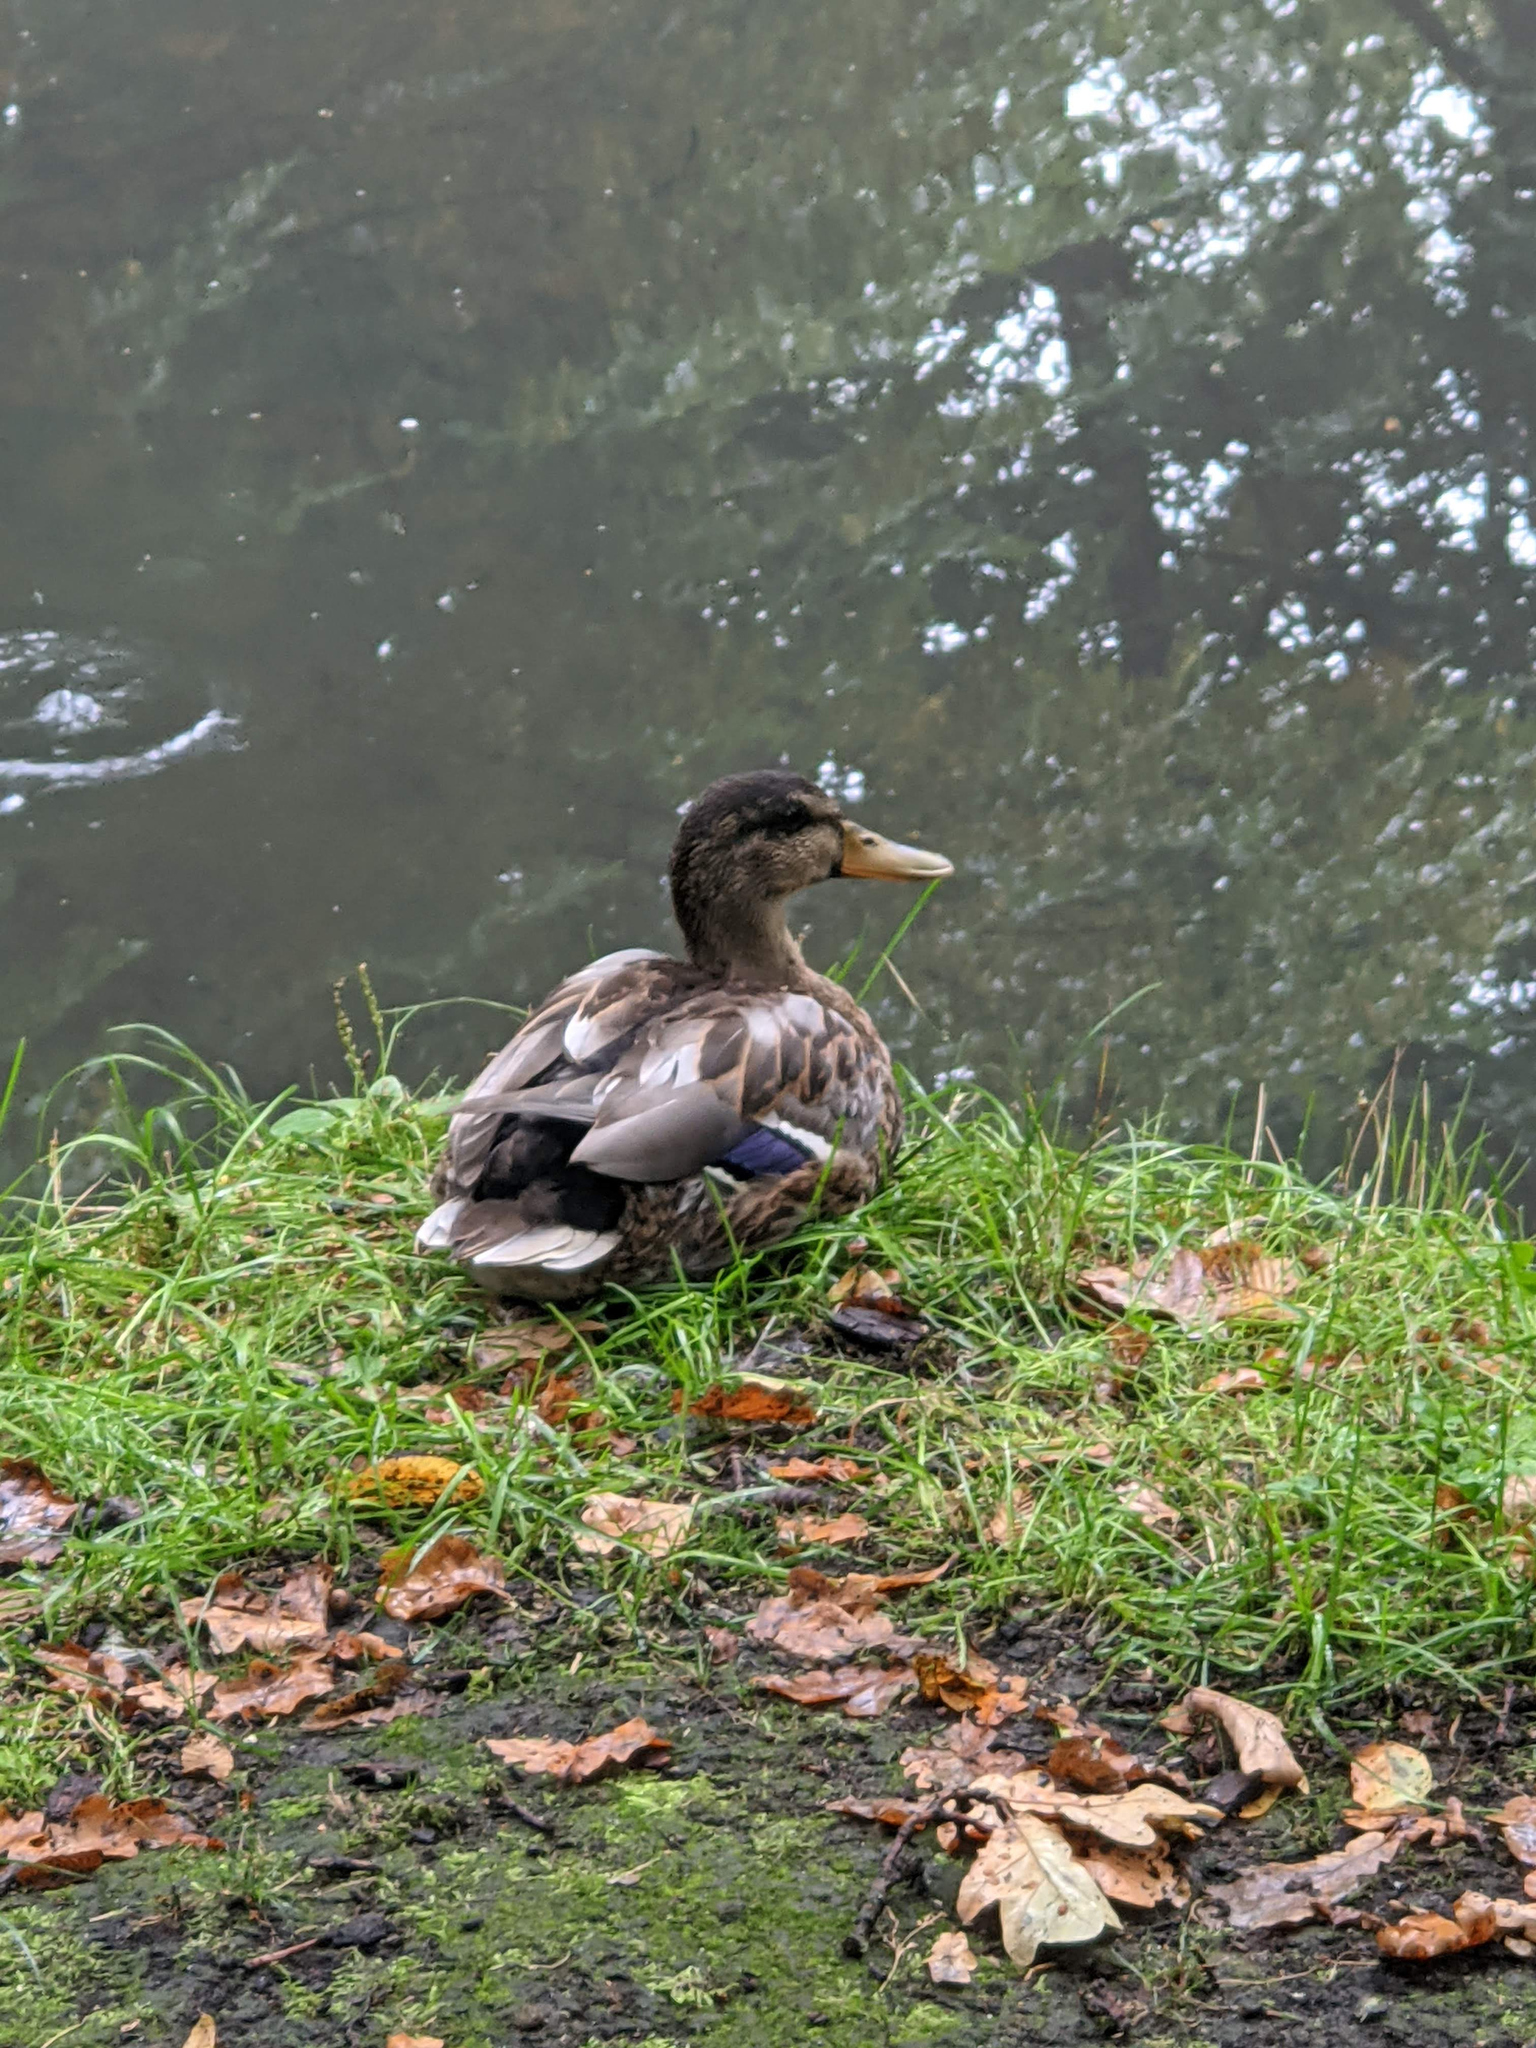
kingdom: Animalia
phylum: Chordata
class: Aves
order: Anseriformes
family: Anatidae
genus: Anas
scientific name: Anas platyrhynchos
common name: Mallard
